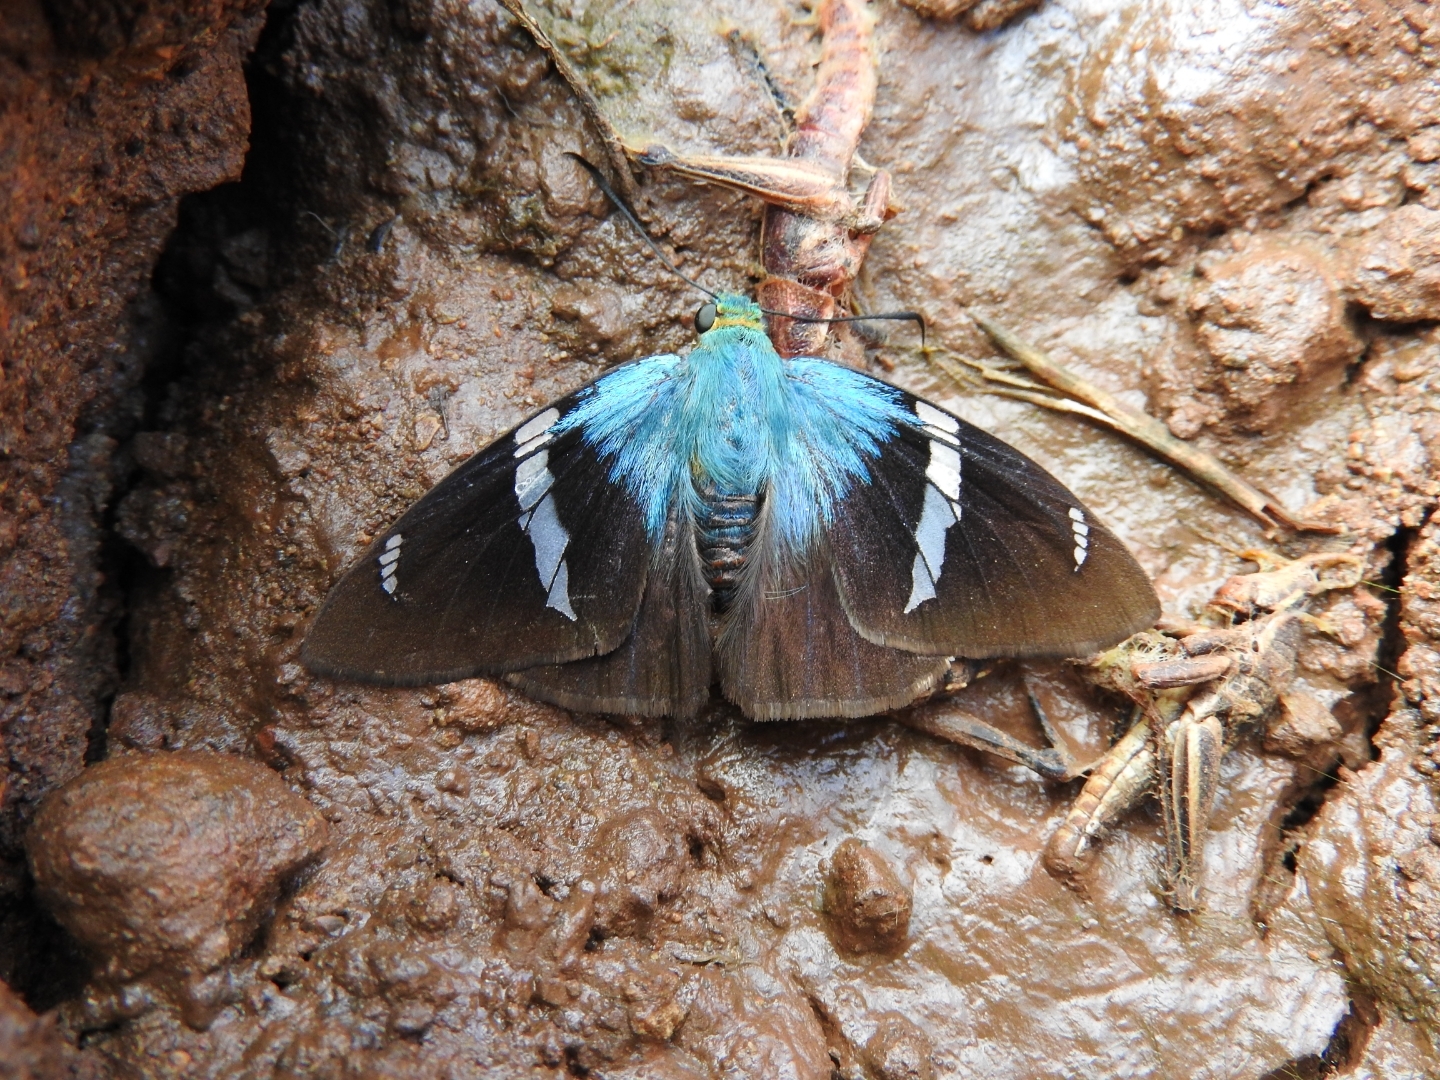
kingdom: Animalia
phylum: Arthropoda
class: Insecta
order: Lepidoptera
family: Hesperiidae
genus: Astraptes
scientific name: Astraptes fulgerator
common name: Two-barred flasher
